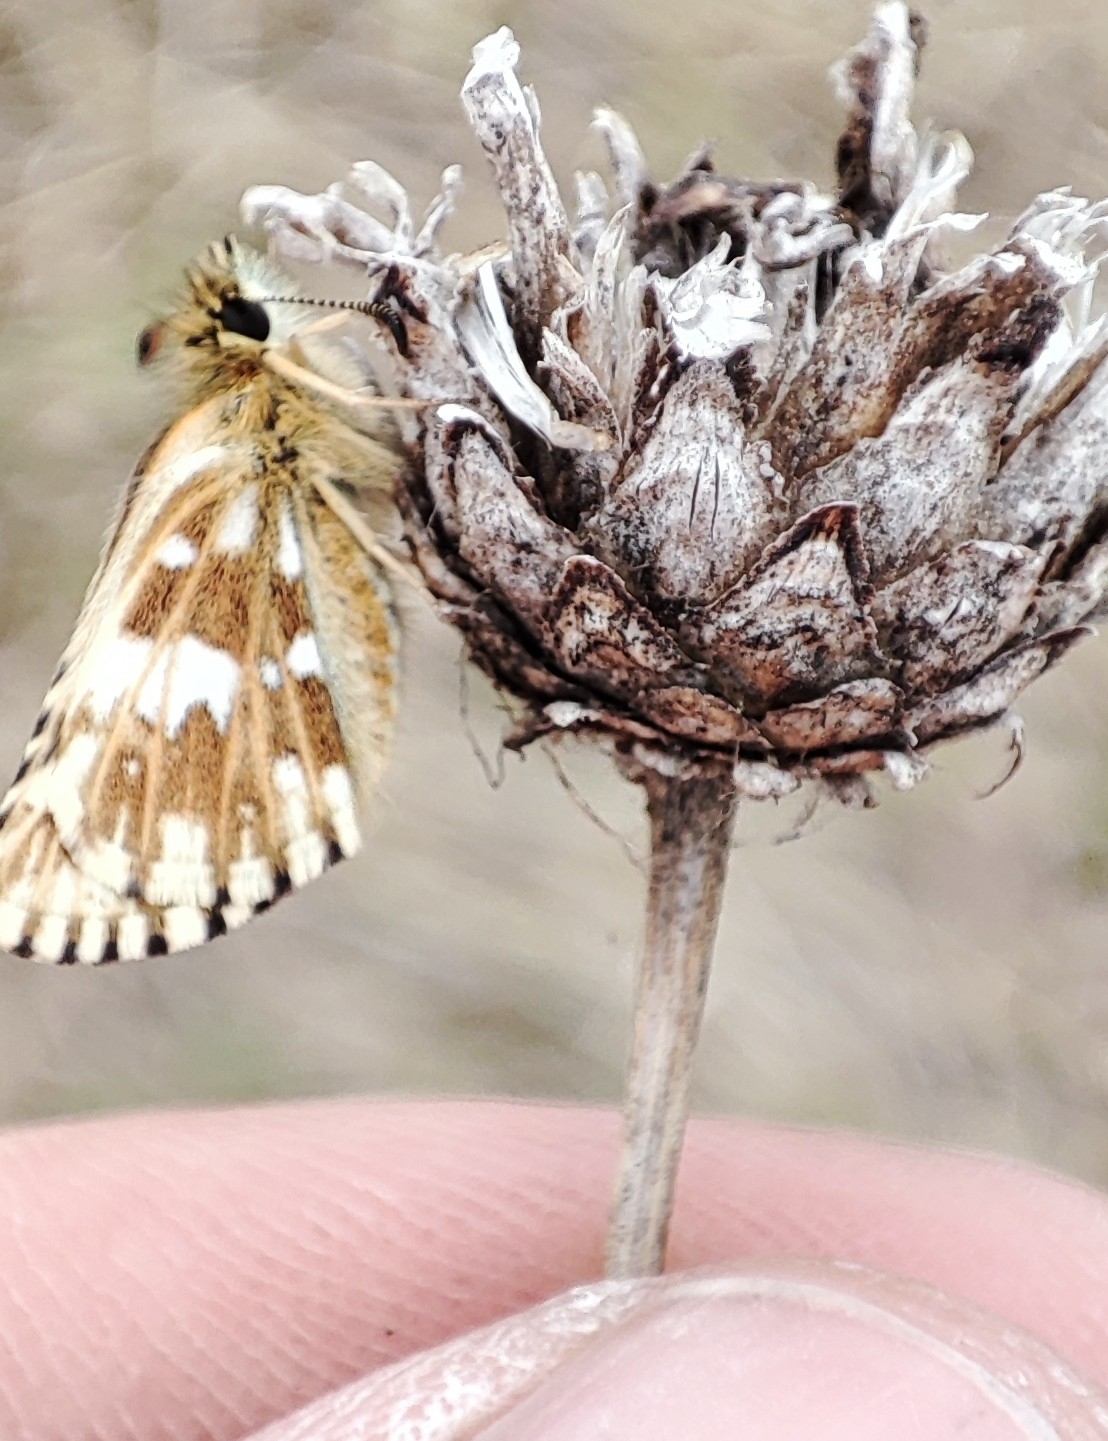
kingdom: Plantae
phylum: Tracheophyta
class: Magnoliopsida
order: Asterales
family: Asteraceae
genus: Centaurea
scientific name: Centaurea scabiosa
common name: Greater knapweed
